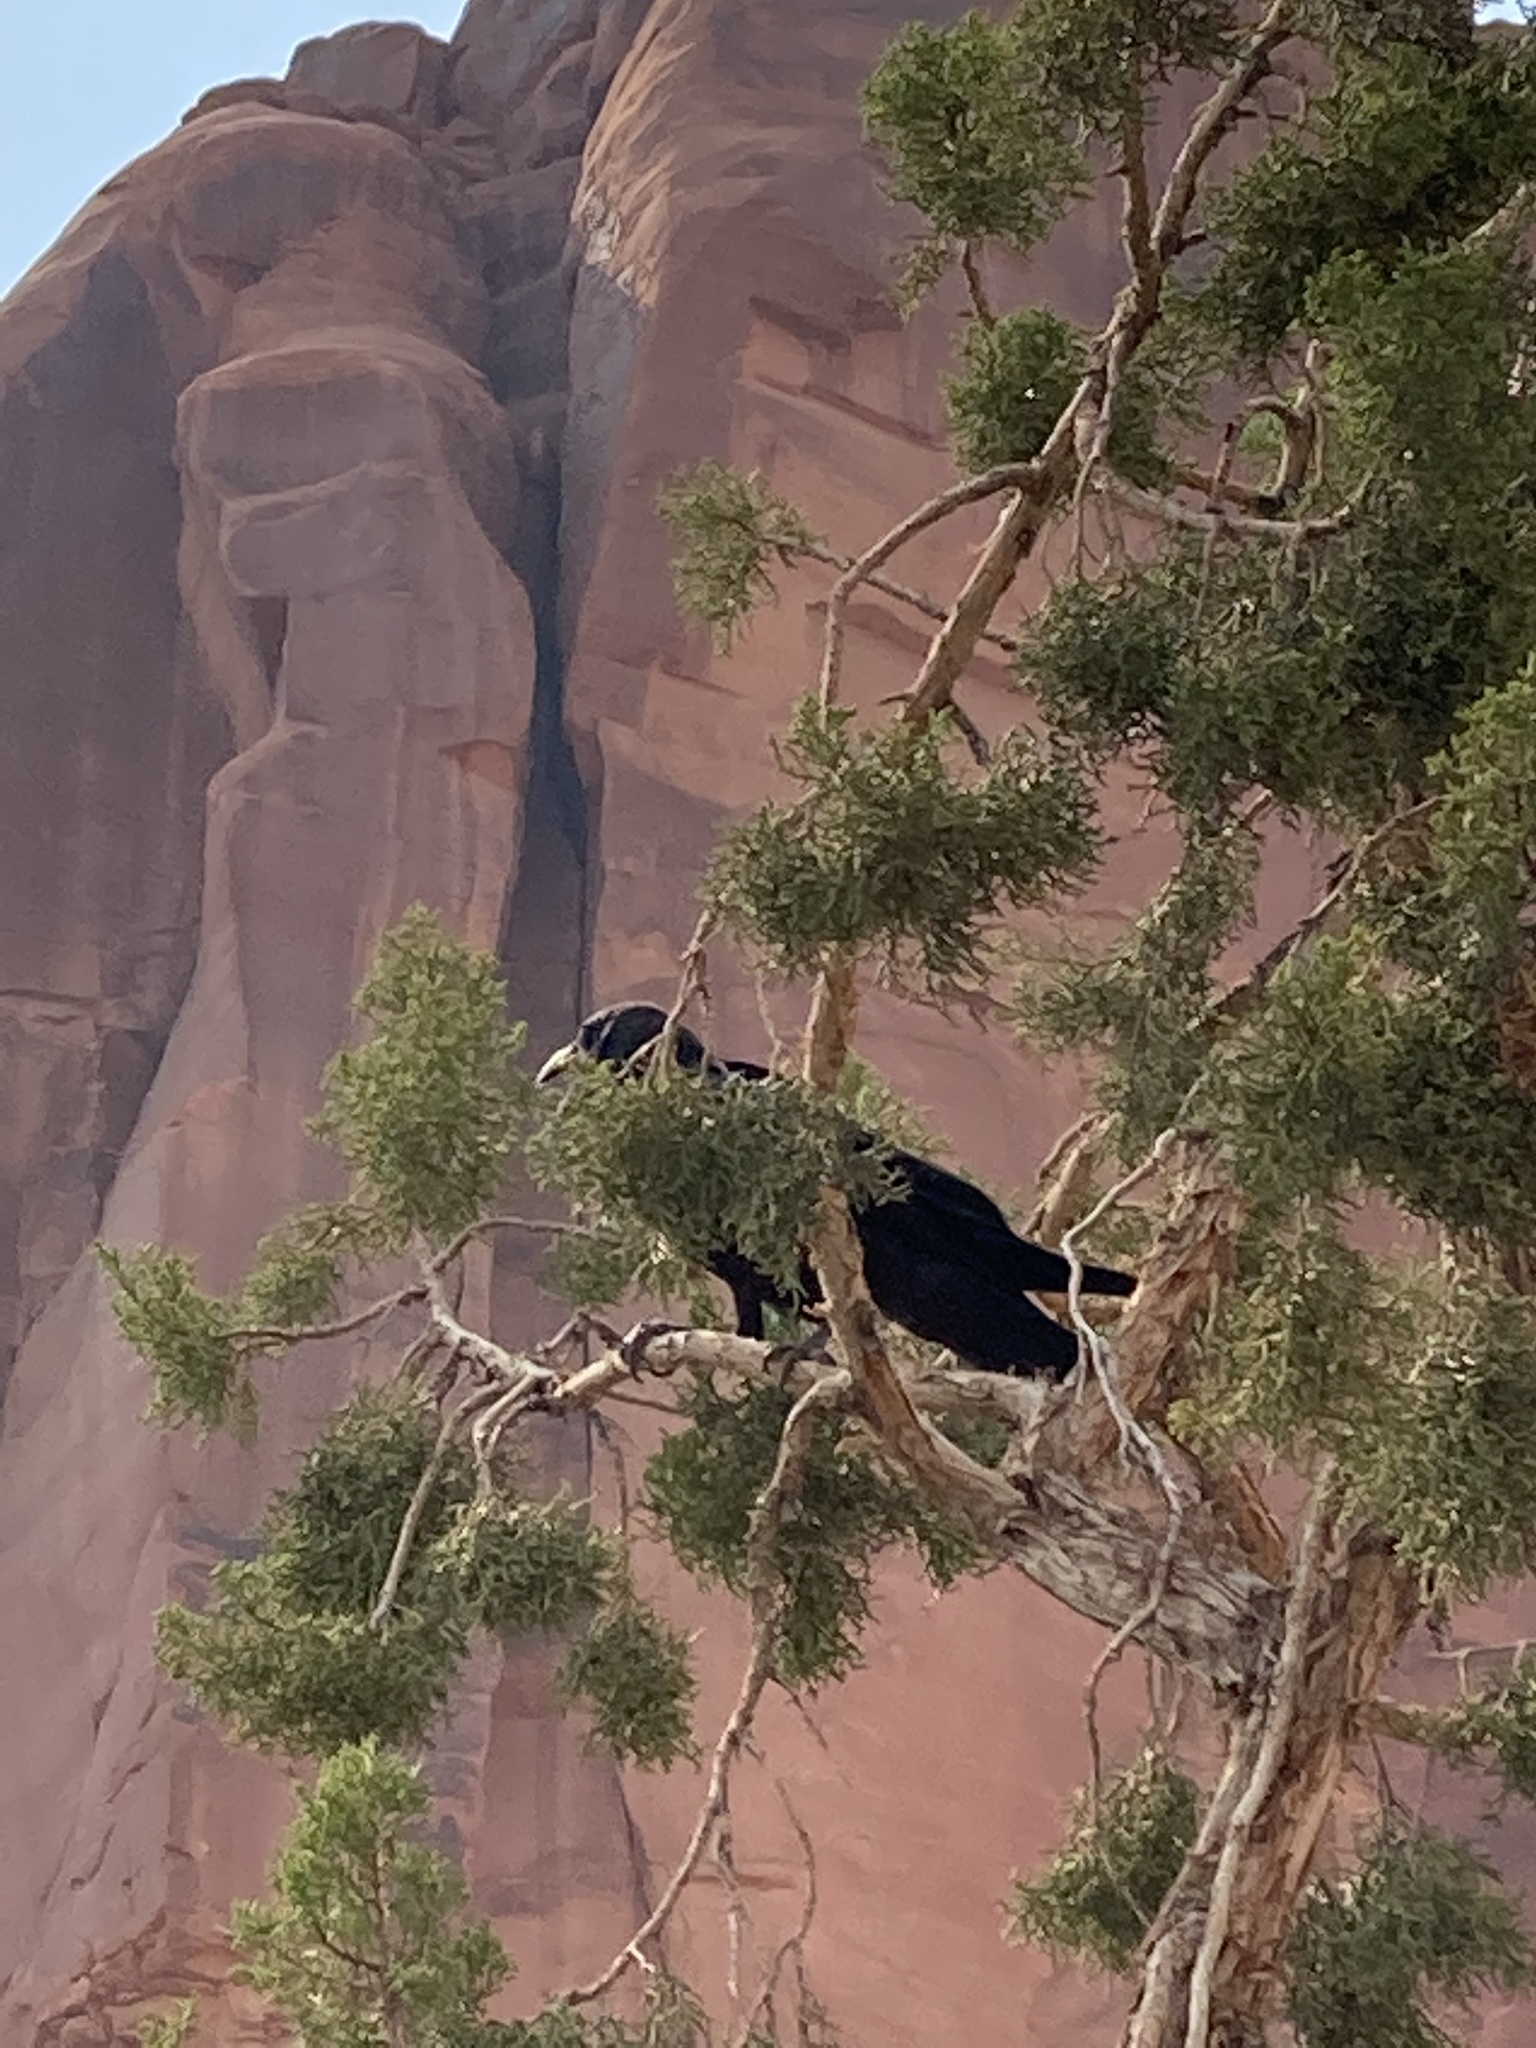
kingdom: Animalia
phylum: Chordata
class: Aves
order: Passeriformes
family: Corvidae
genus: Corvus
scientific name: Corvus corax
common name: Common raven
